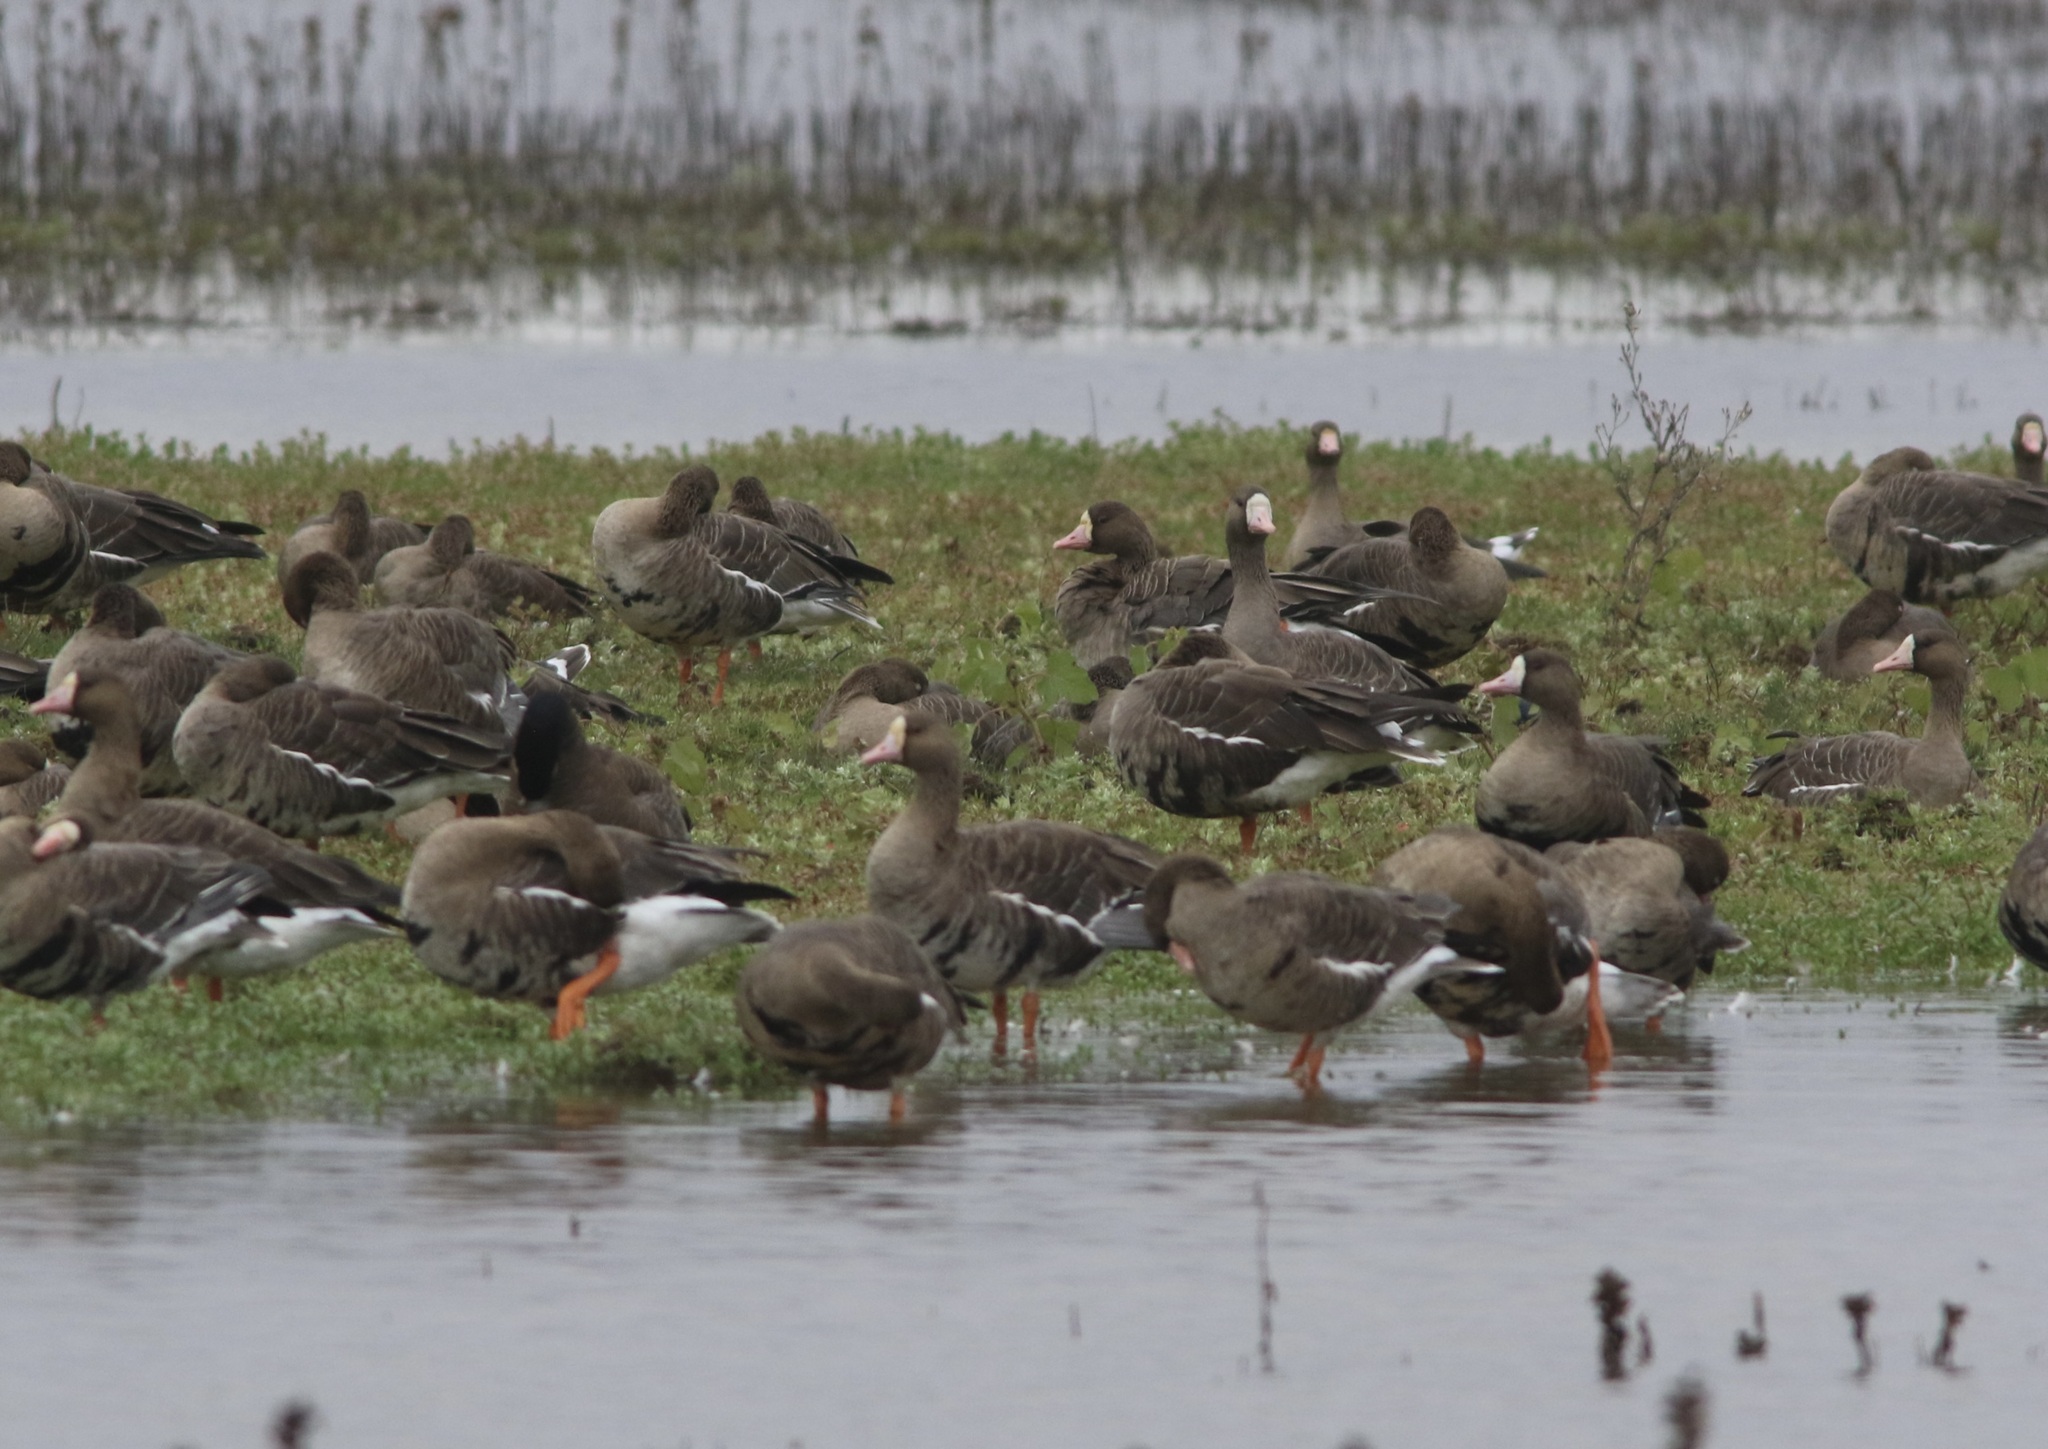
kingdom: Animalia
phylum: Chordata
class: Aves
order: Anseriformes
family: Anatidae
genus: Anser
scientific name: Anser albifrons
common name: Greater white-fronted goose
